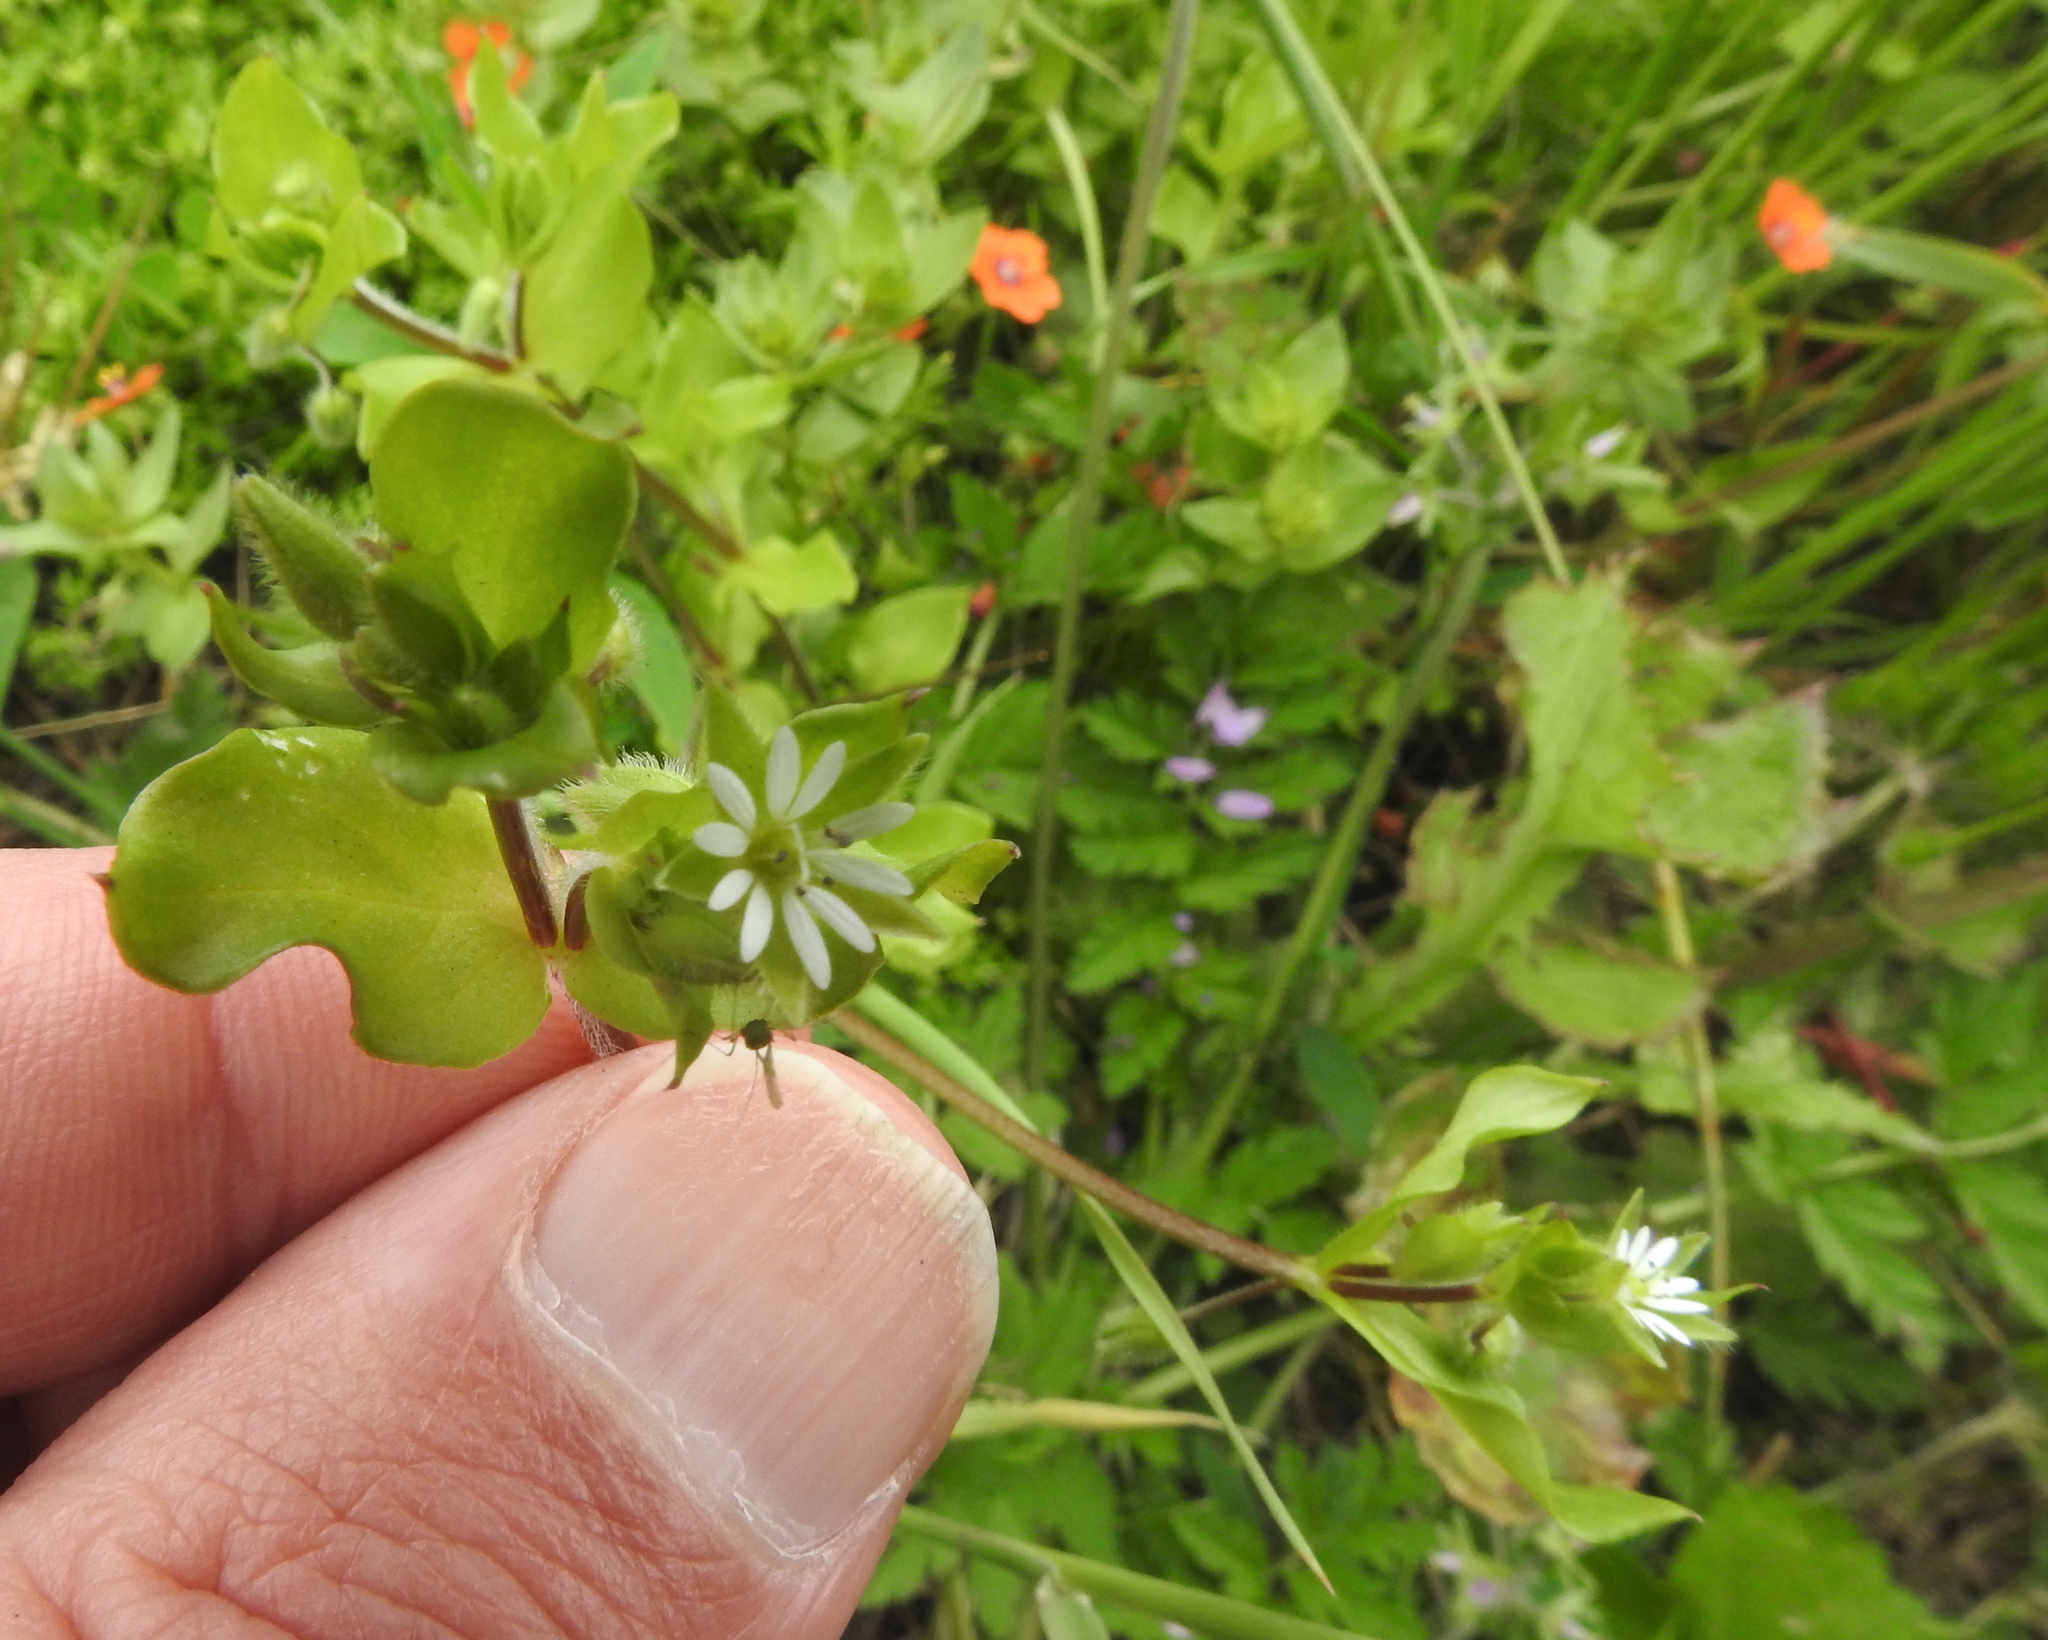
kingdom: Plantae
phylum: Tracheophyta
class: Magnoliopsida
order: Caryophyllales
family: Caryophyllaceae
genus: Stellaria
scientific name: Stellaria media
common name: Common chickweed
